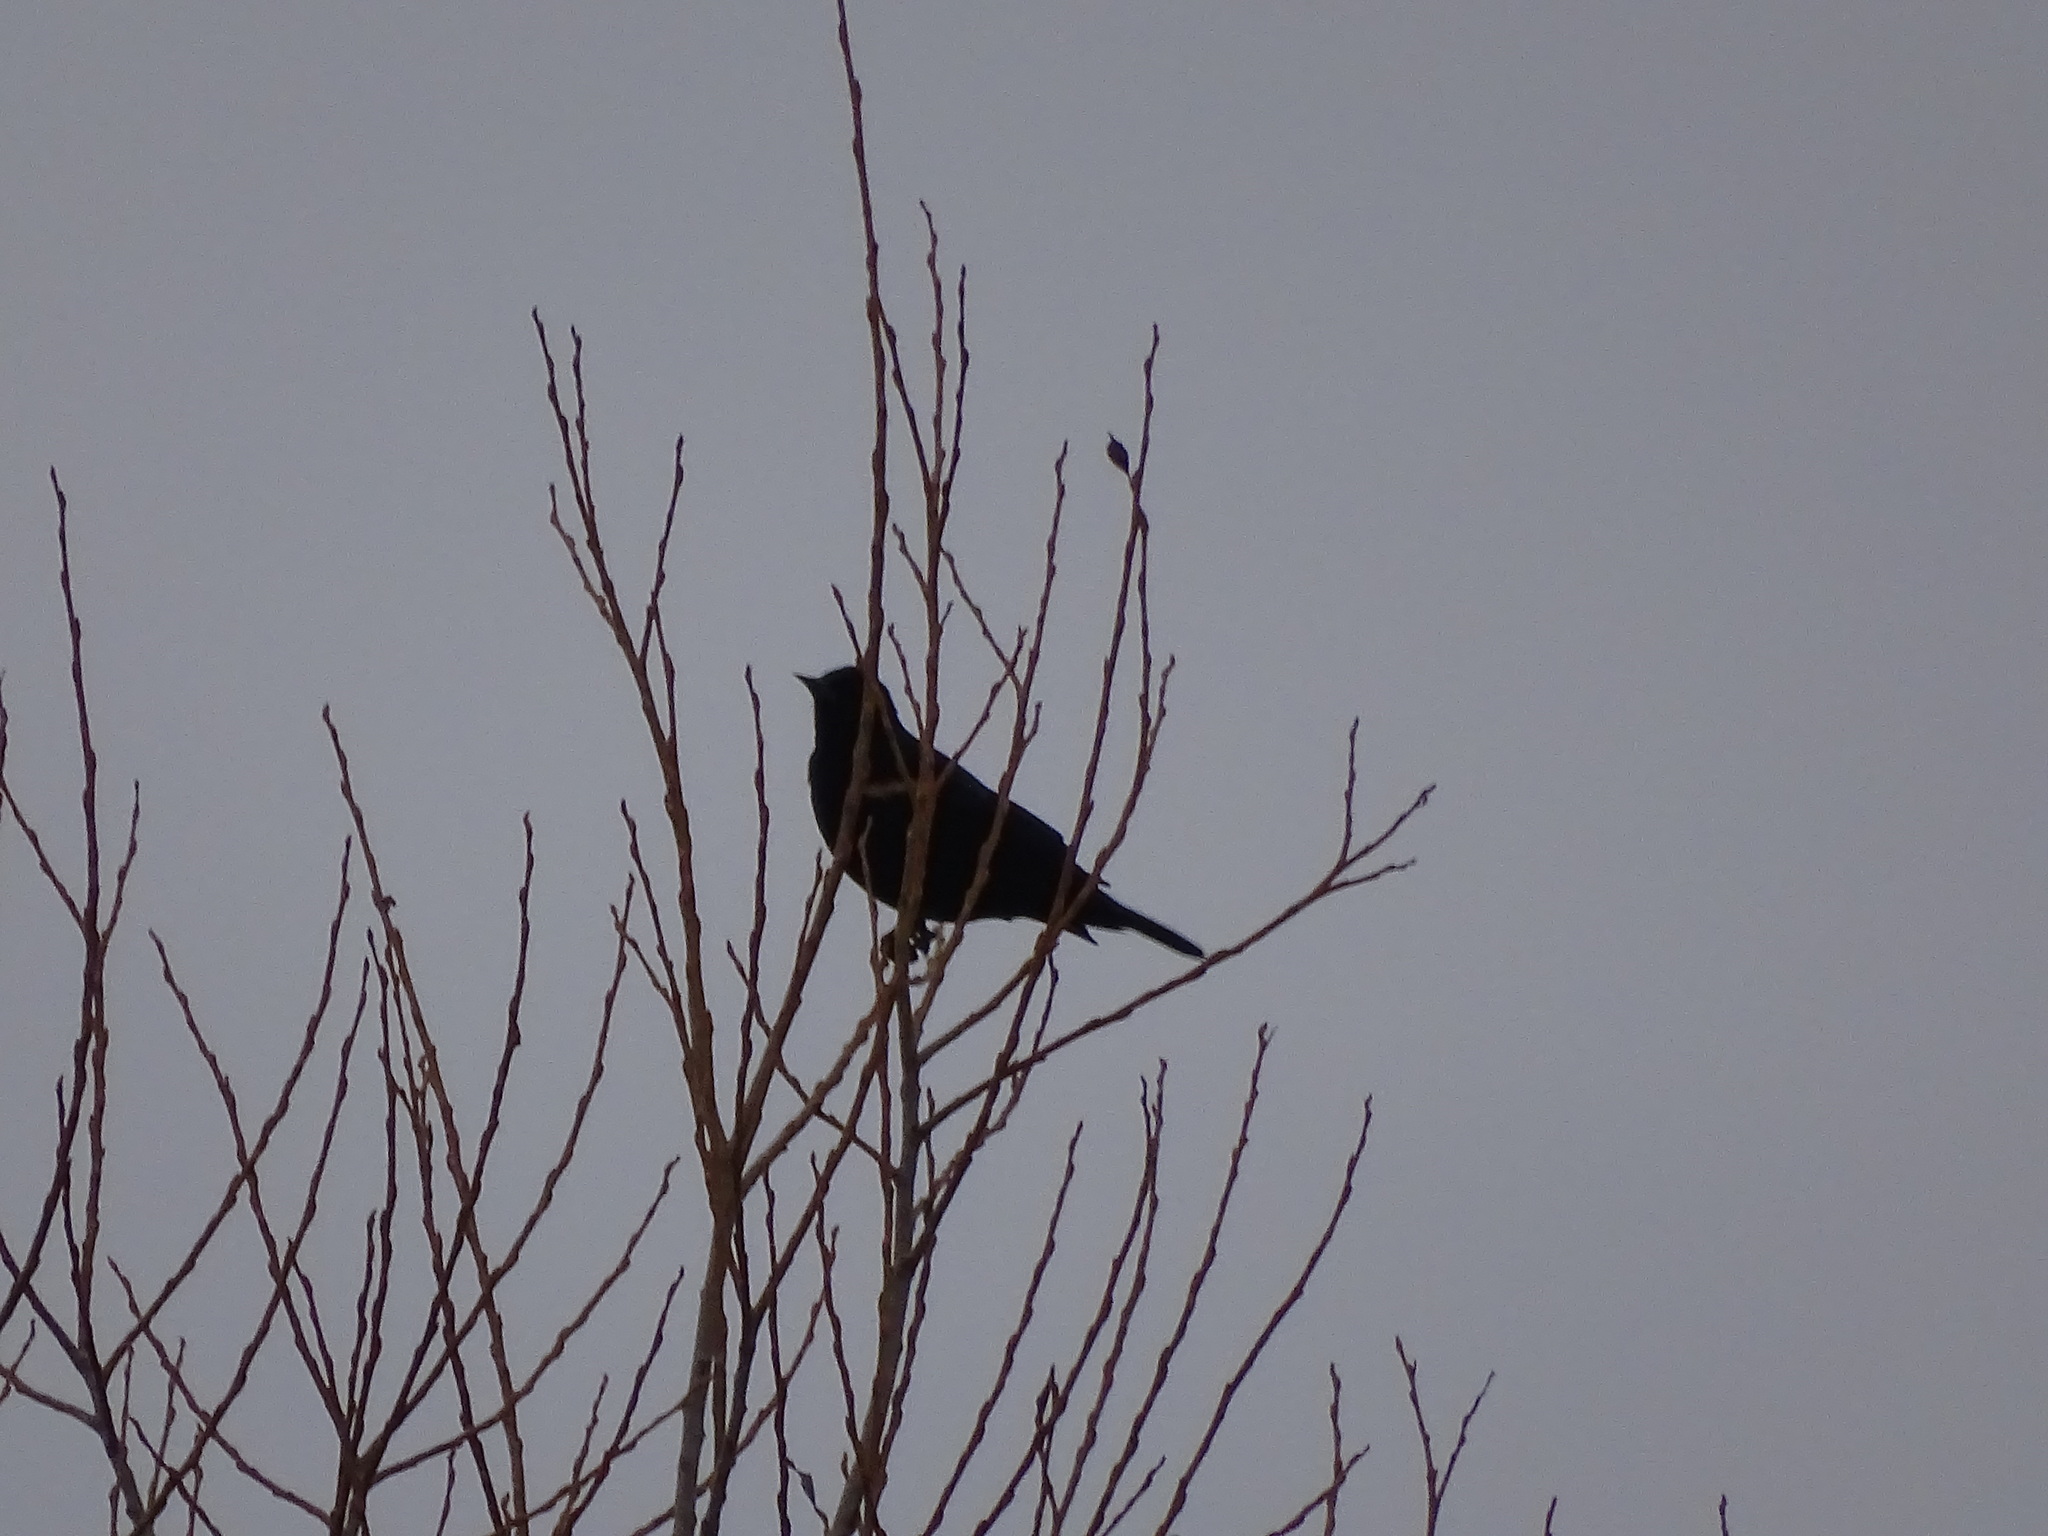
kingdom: Animalia
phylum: Chordata
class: Aves
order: Passeriformes
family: Icteridae
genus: Agelaius
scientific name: Agelaius phoeniceus
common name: Red-winged blackbird
